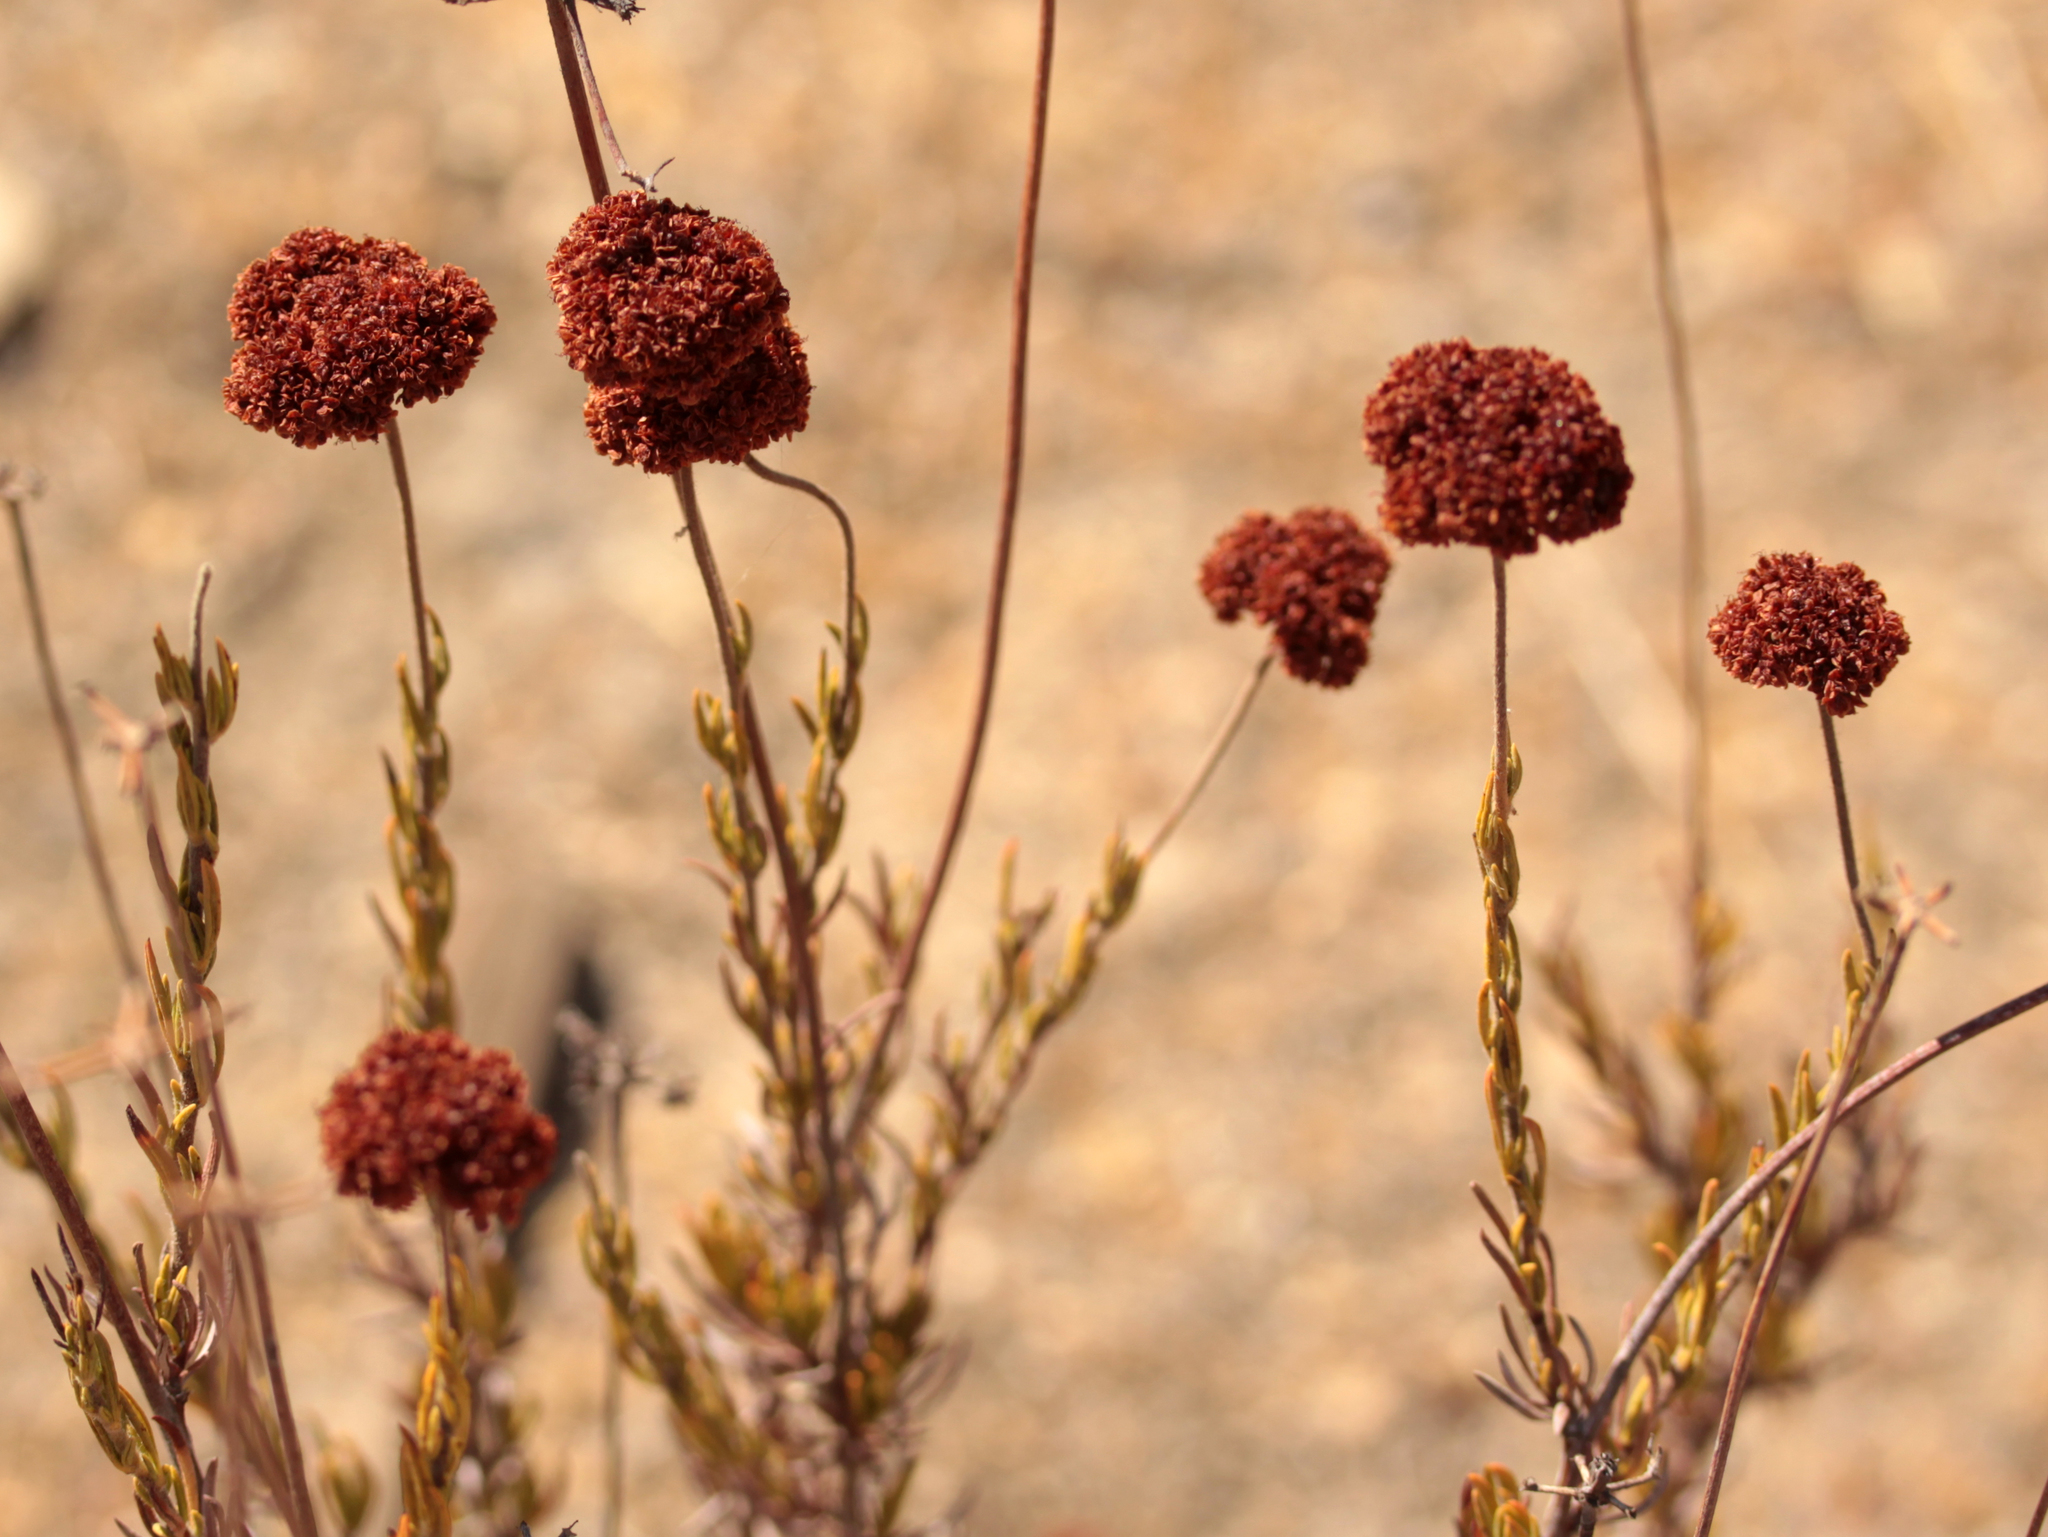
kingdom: Plantae
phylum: Tracheophyta
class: Magnoliopsida
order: Caryophyllales
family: Polygonaceae
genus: Eriogonum
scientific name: Eriogonum fasciculatum
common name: California wild buckwheat
